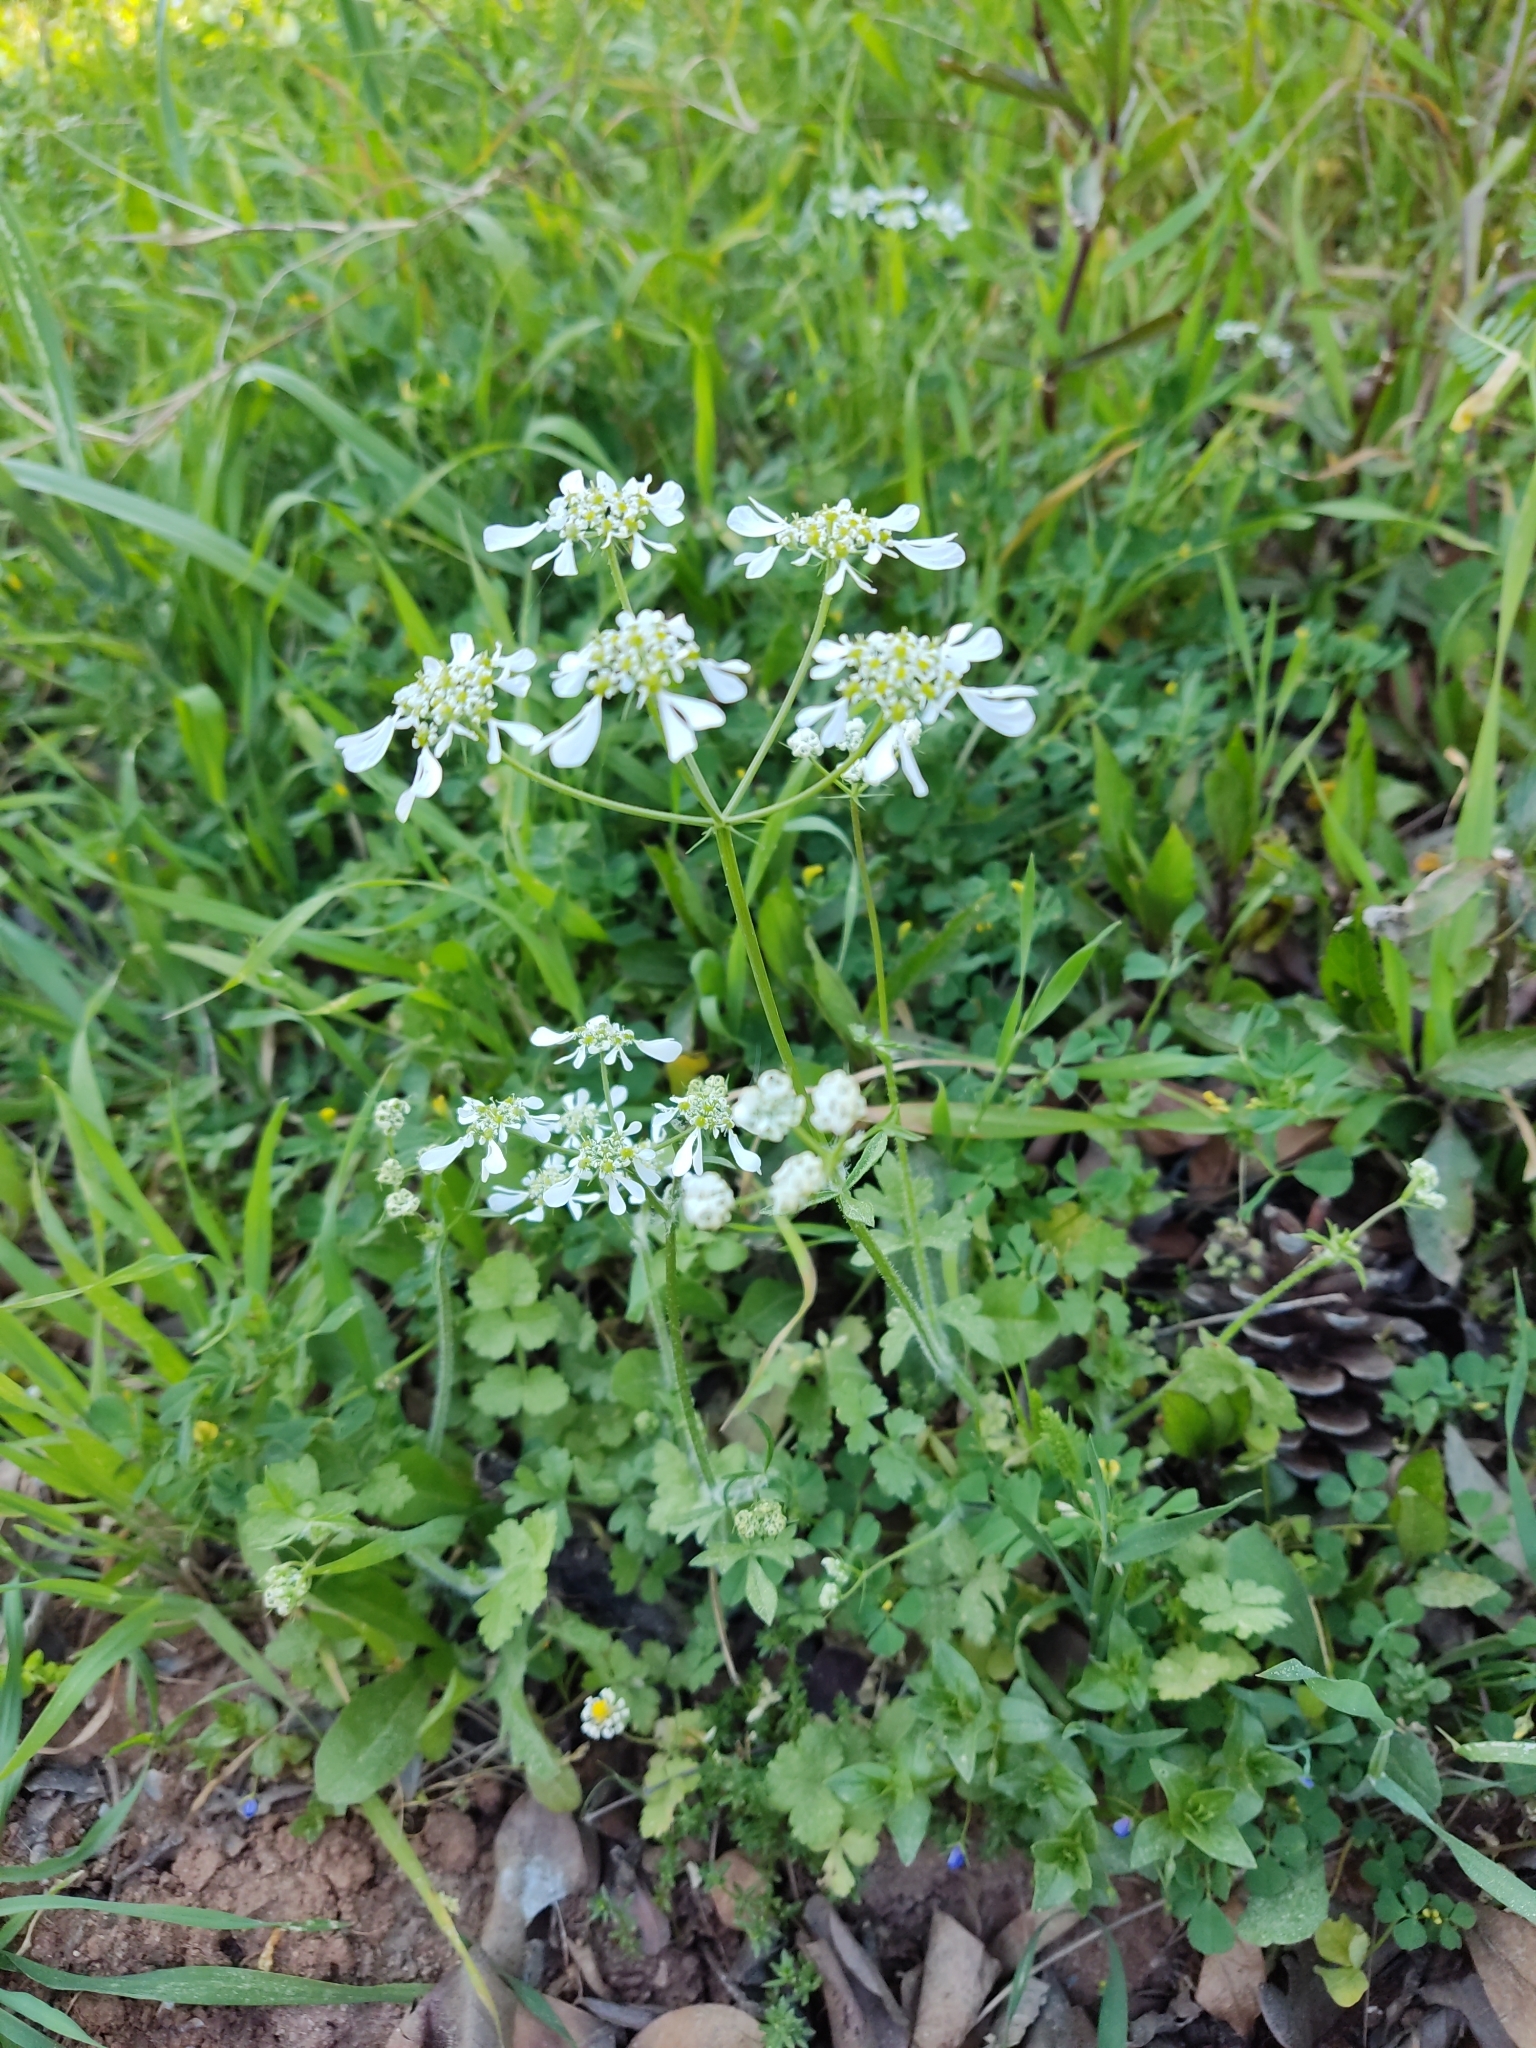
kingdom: Plantae
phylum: Tracheophyta
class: Magnoliopsida
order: Apiales
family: Apiaceae
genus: Tordylium
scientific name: Tordylium apulum
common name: Mediterranean hartwort
